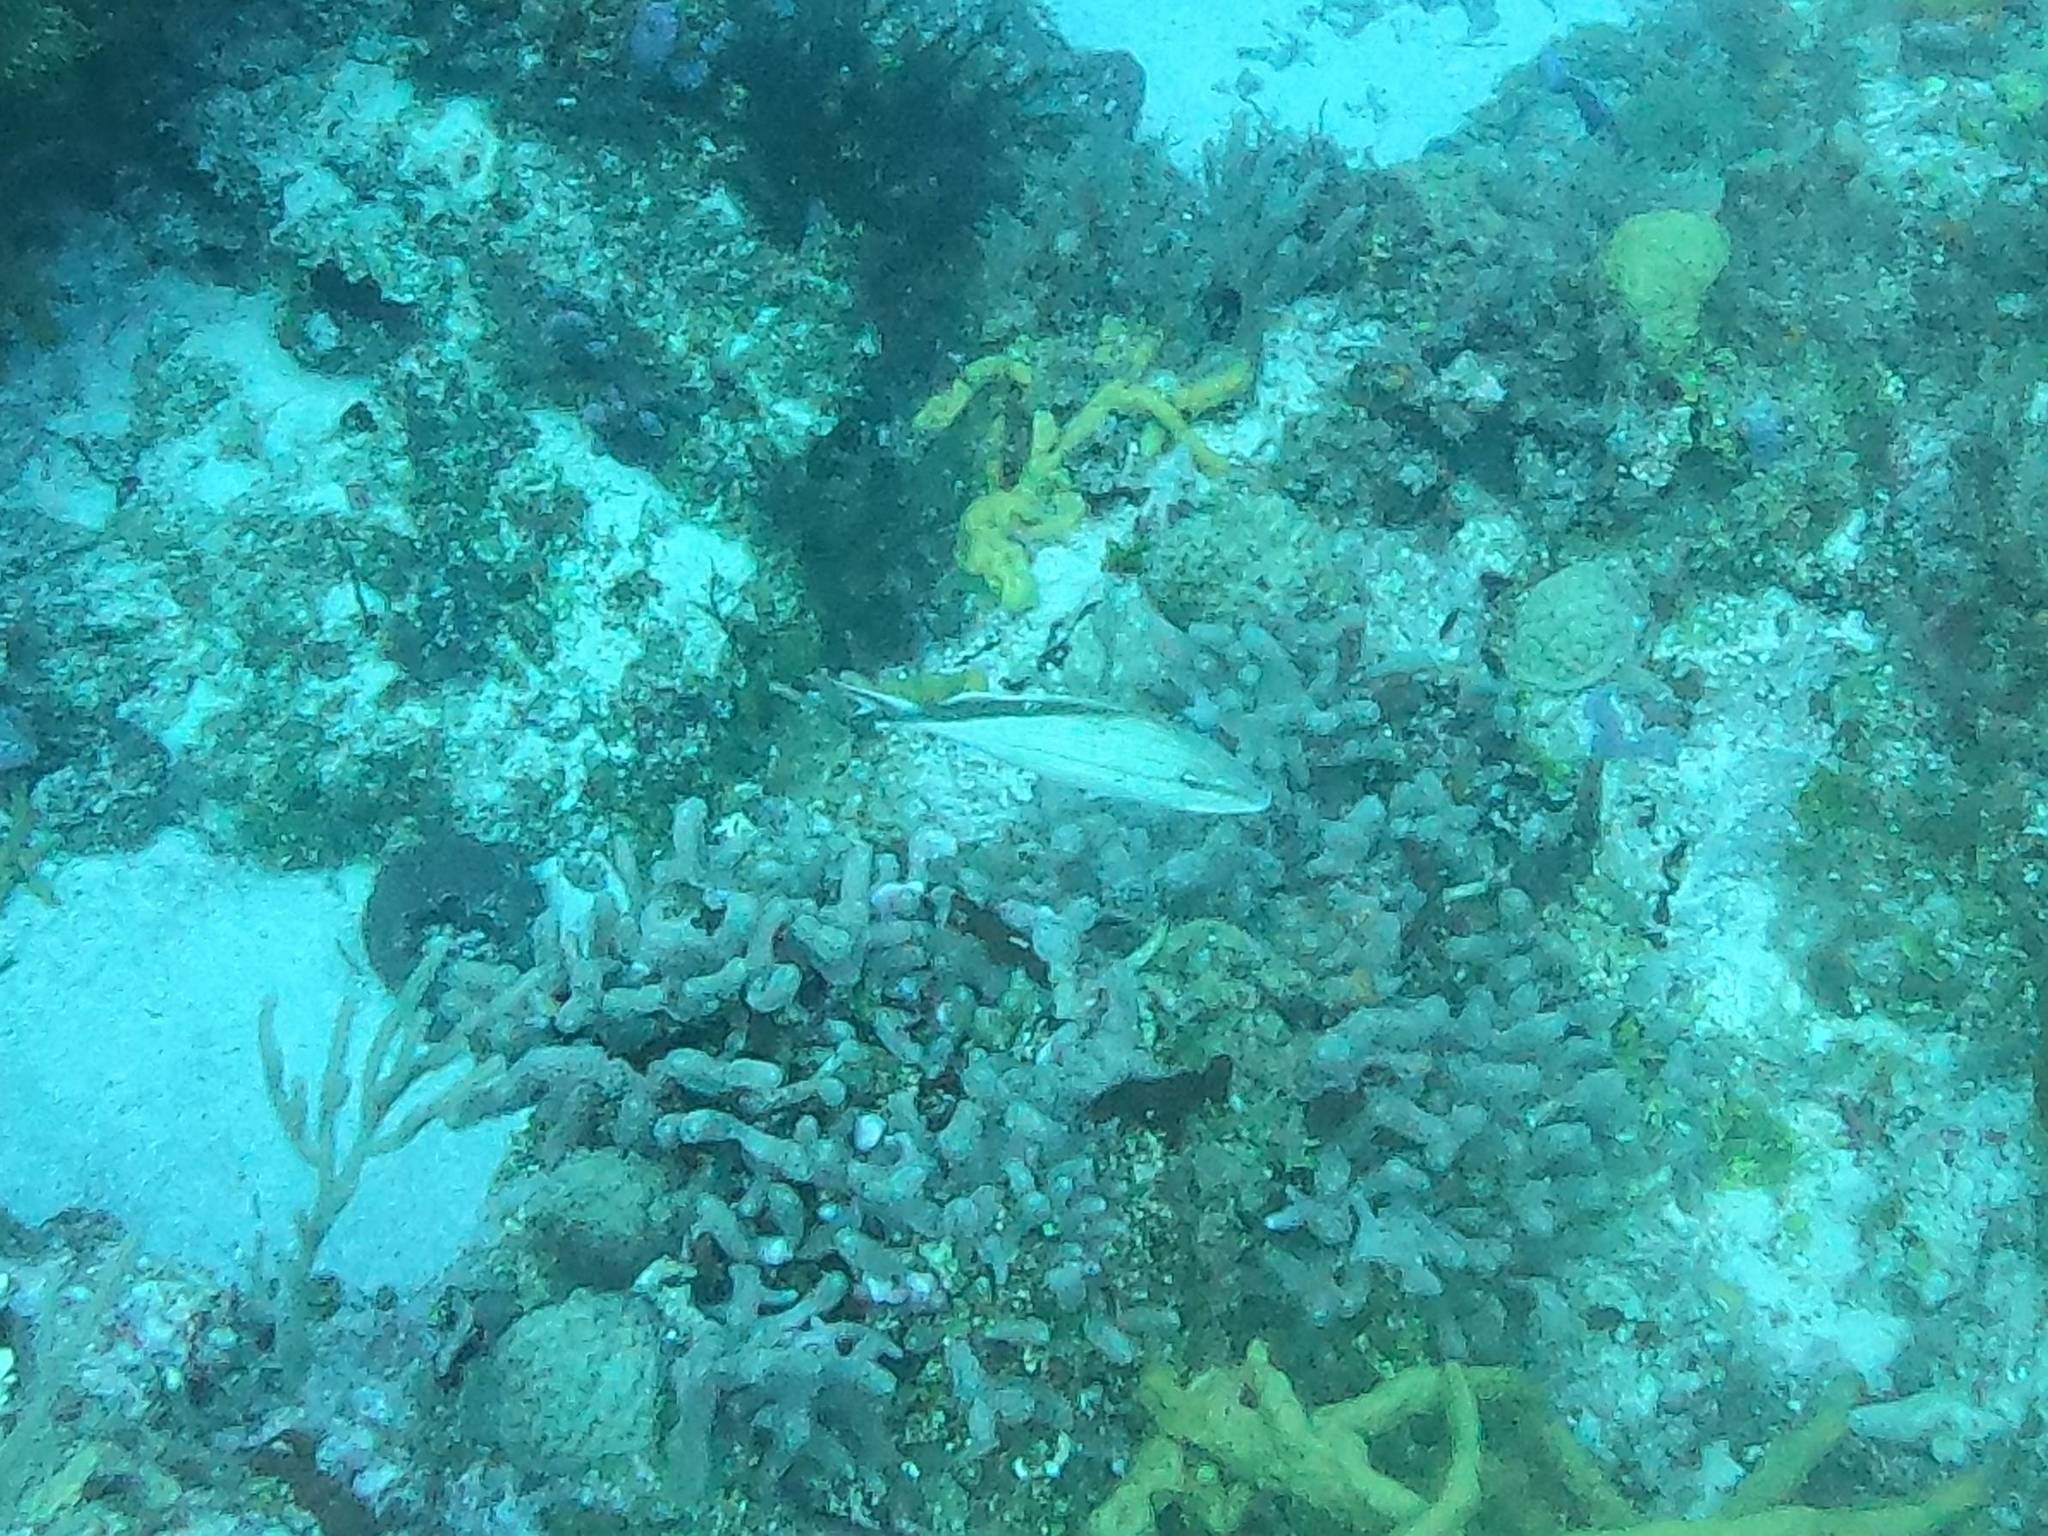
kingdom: Animalia
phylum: Chordata
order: Perciformes
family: Haemulidae
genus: Haemulon
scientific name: Haemulon melanurum
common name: Cottonwick
